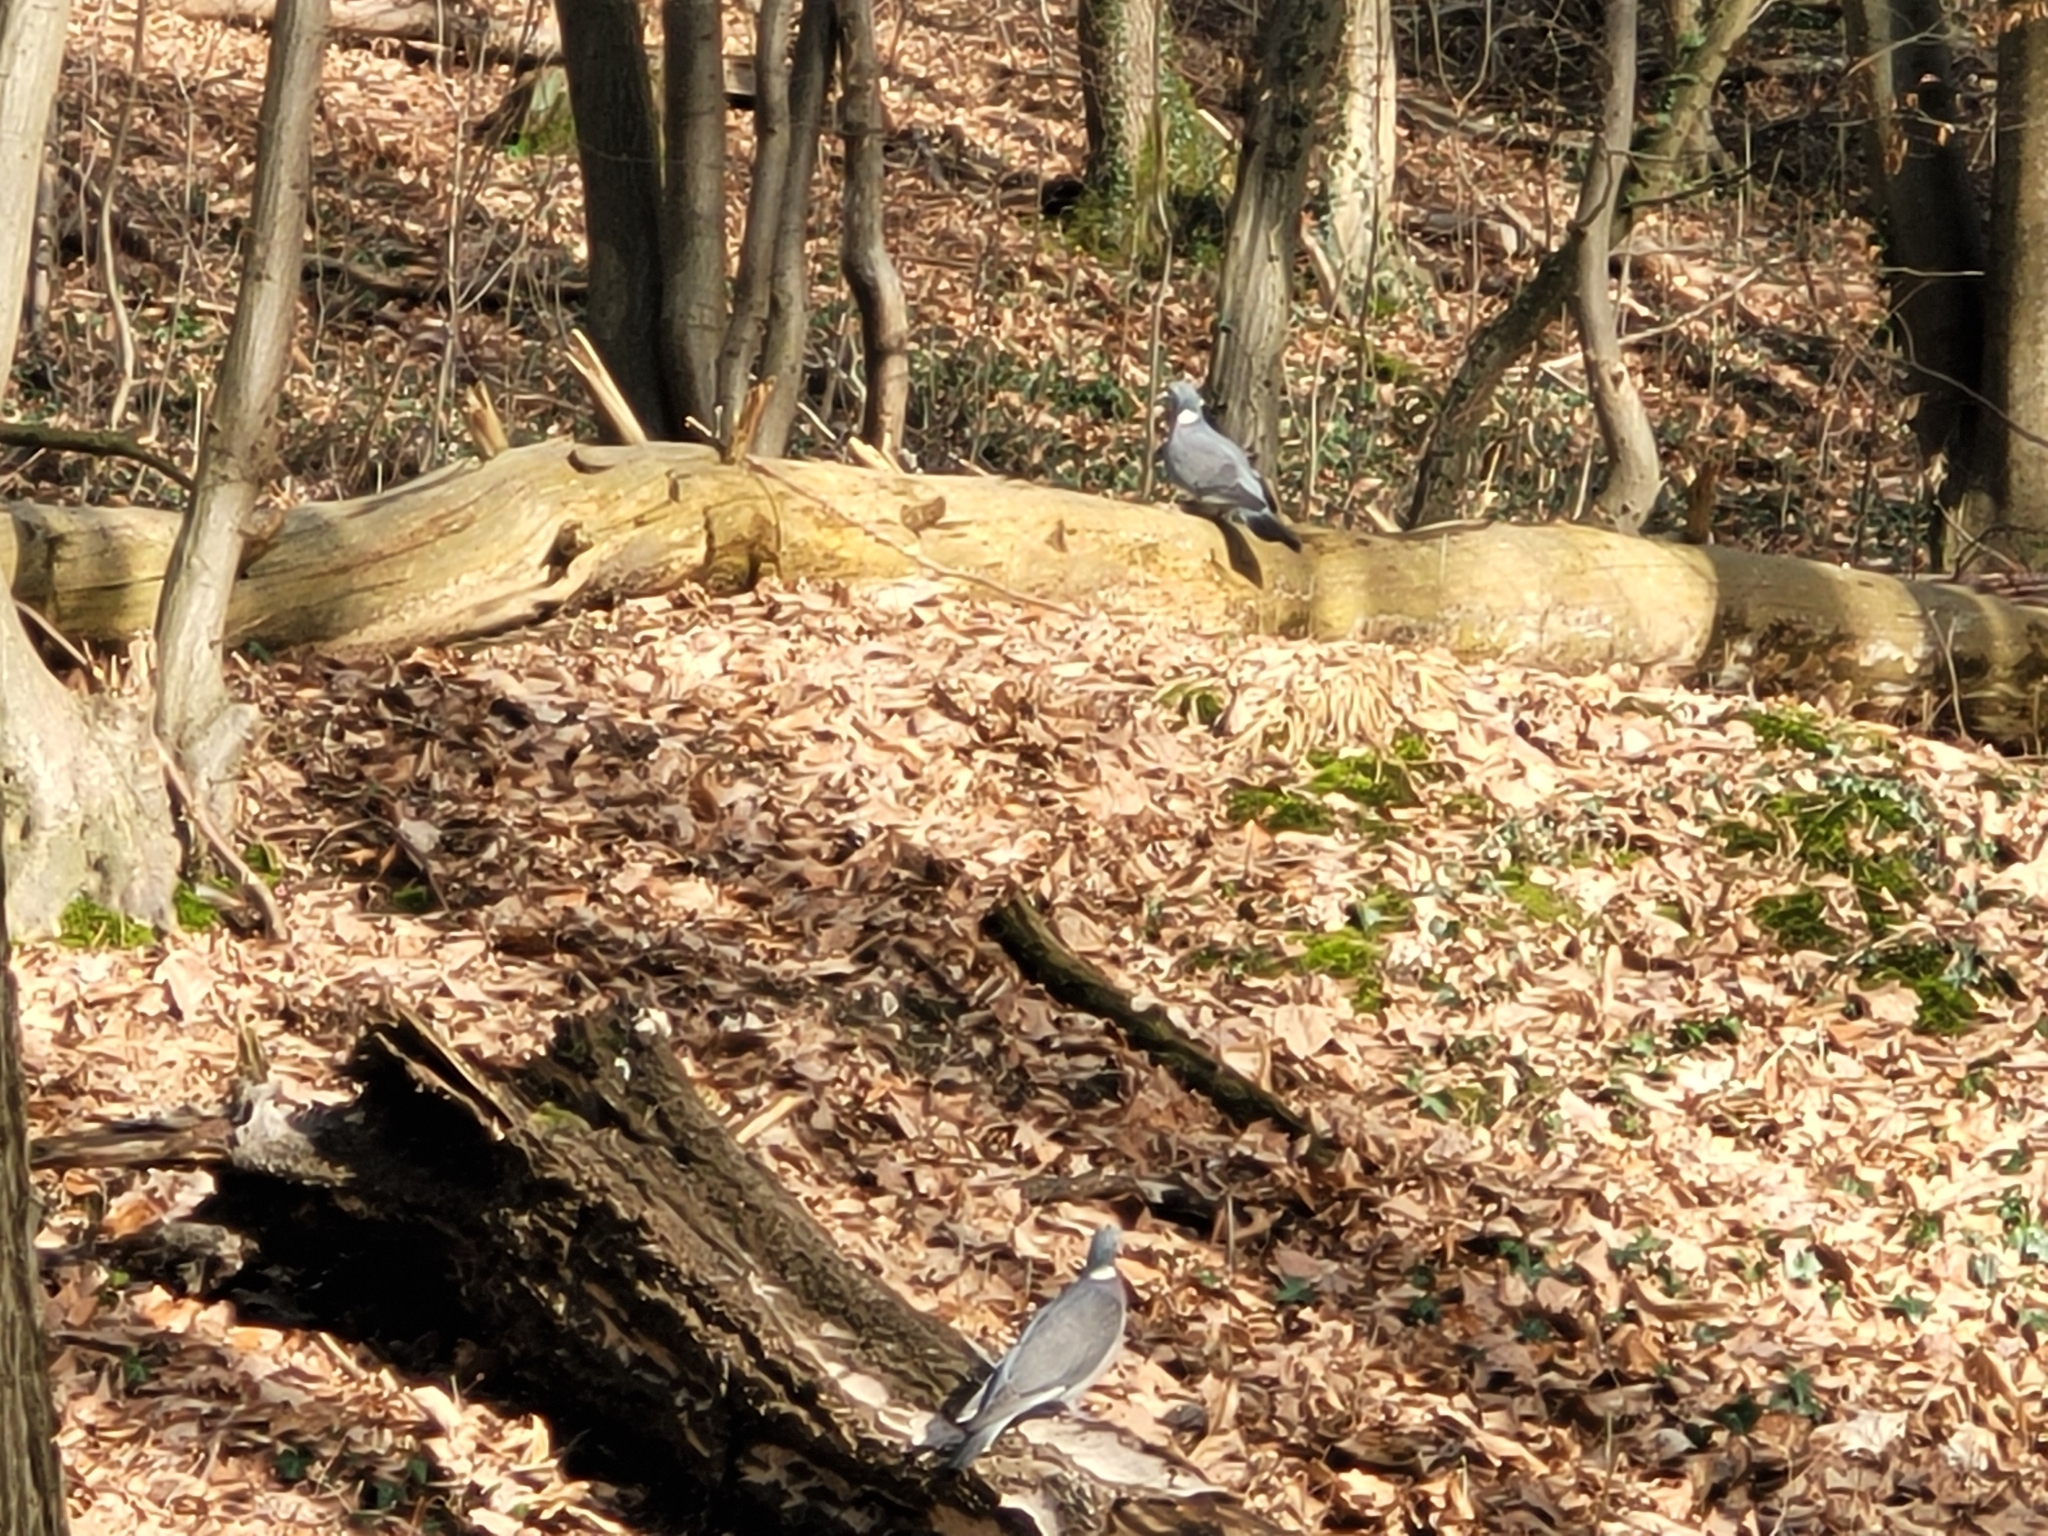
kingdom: Animalia
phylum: Chordata
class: Aves
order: Columbiformes
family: Columbidae
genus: Columba
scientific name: Columba palumbus
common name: Common wood pigeon
